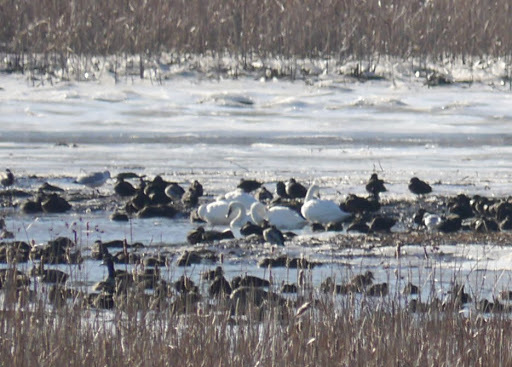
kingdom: Animalia
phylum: Chordata
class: Aves
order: Anseriformes
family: Anatidae
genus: Cygnus
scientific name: Cygnus columbianus
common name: Tundra swan
